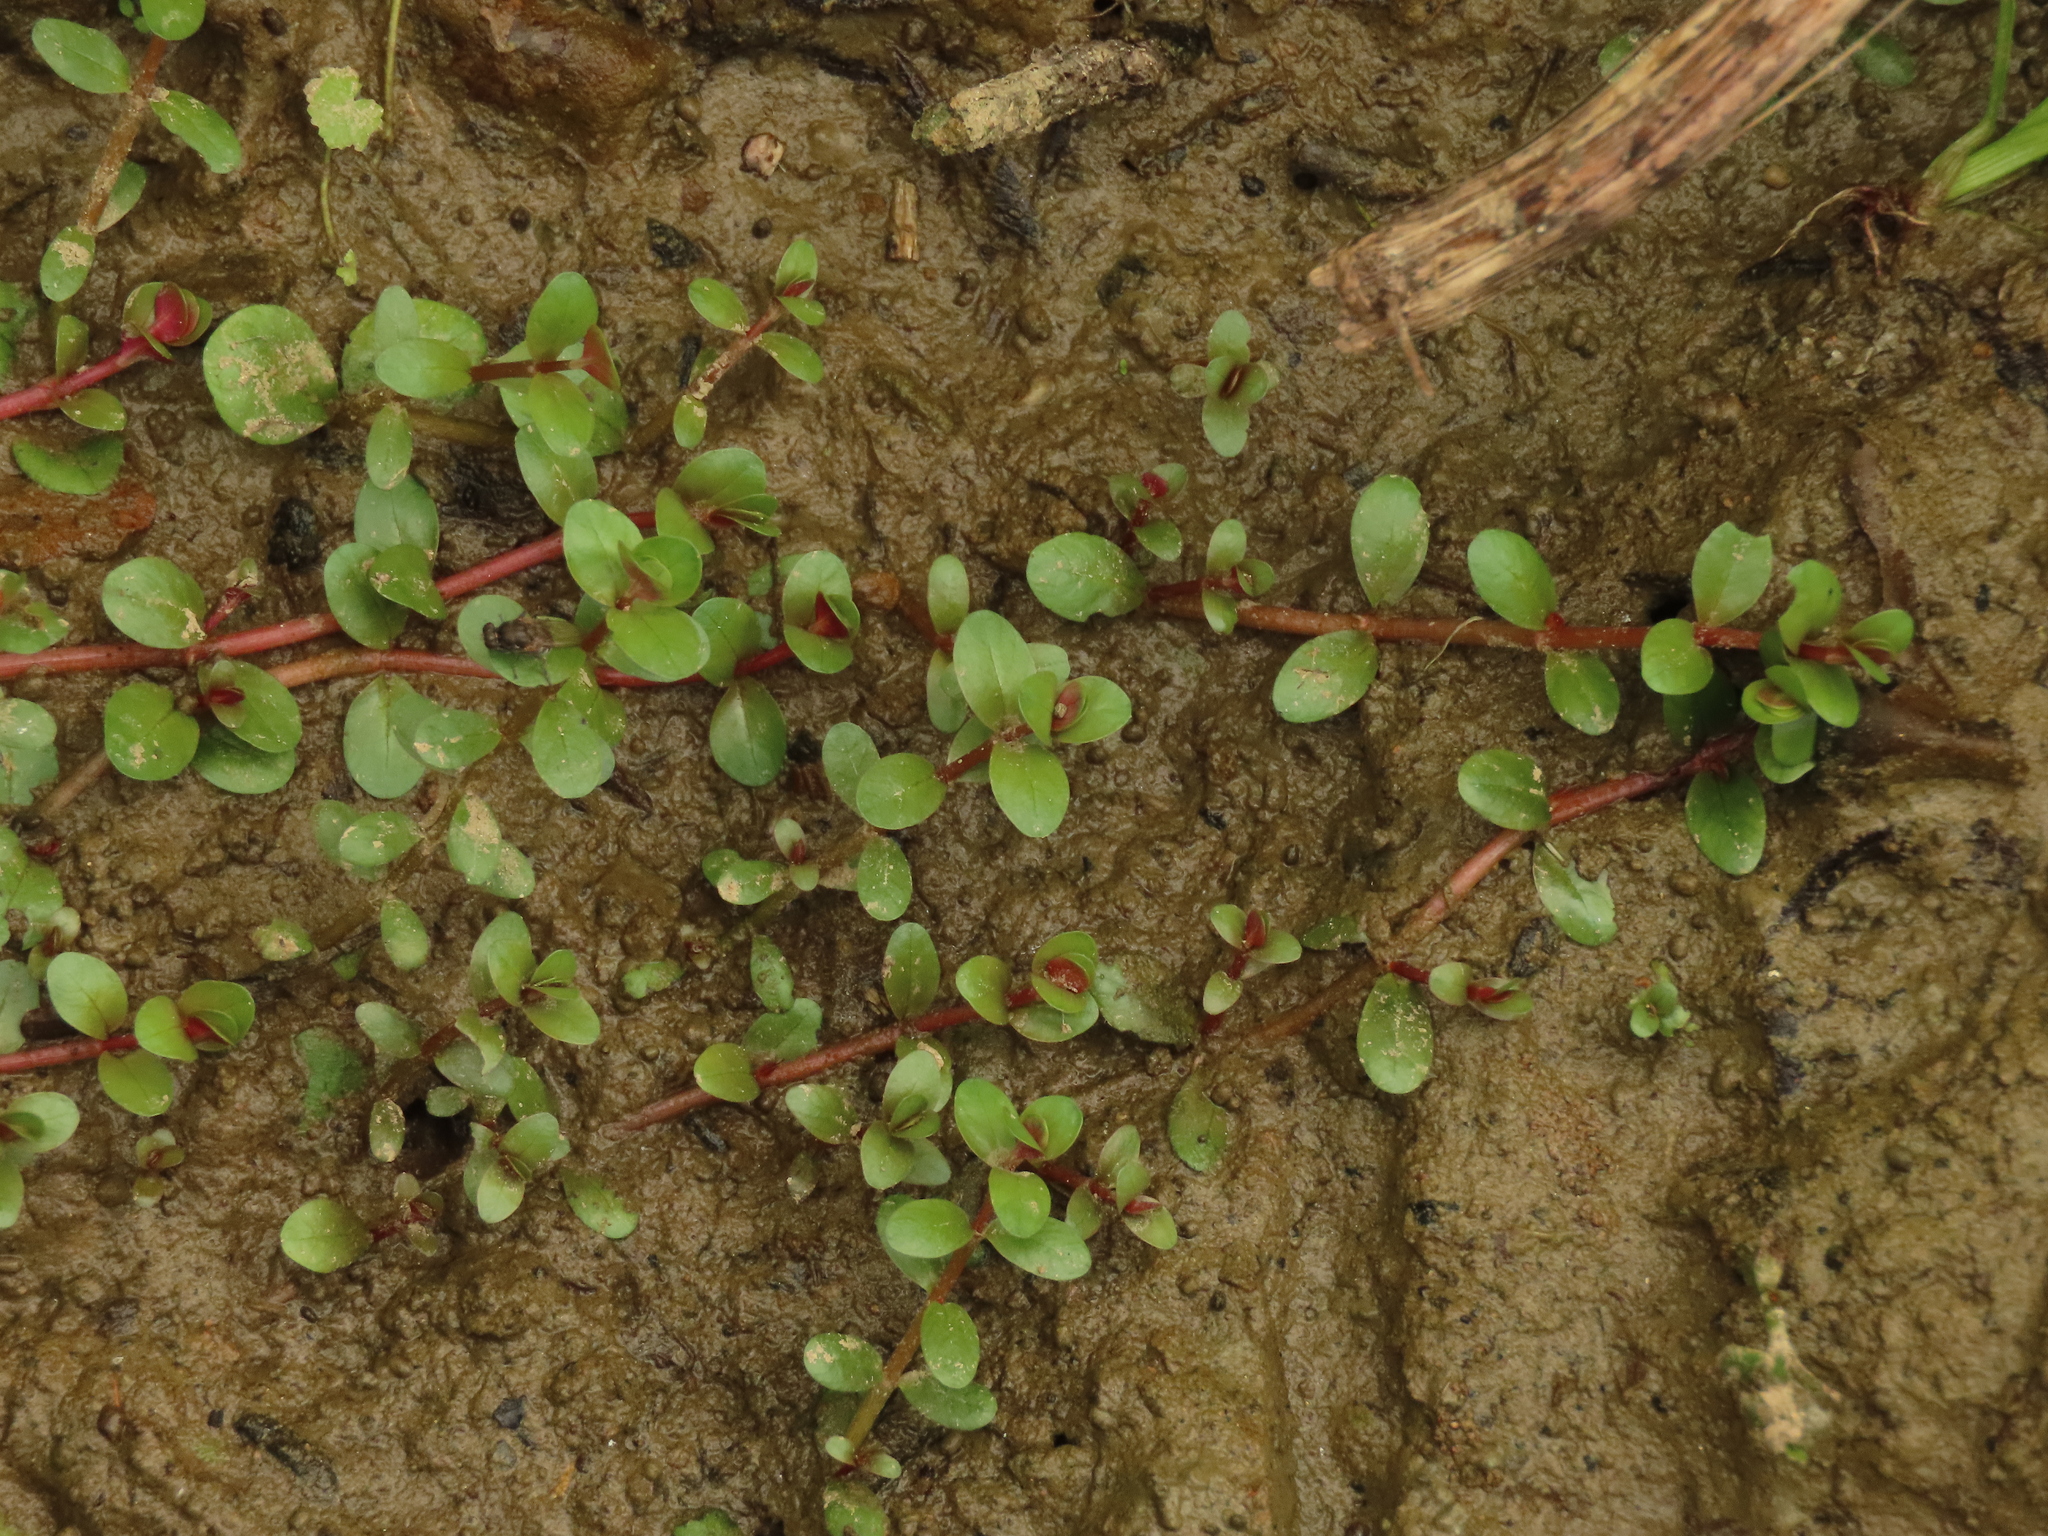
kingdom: Plantae
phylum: Tracheophyta
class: Magnoliopsida
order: Myrtales
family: Lythraceae
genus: Rotala
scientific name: Rotala rotundifolia
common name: Roundleaf toothcup
